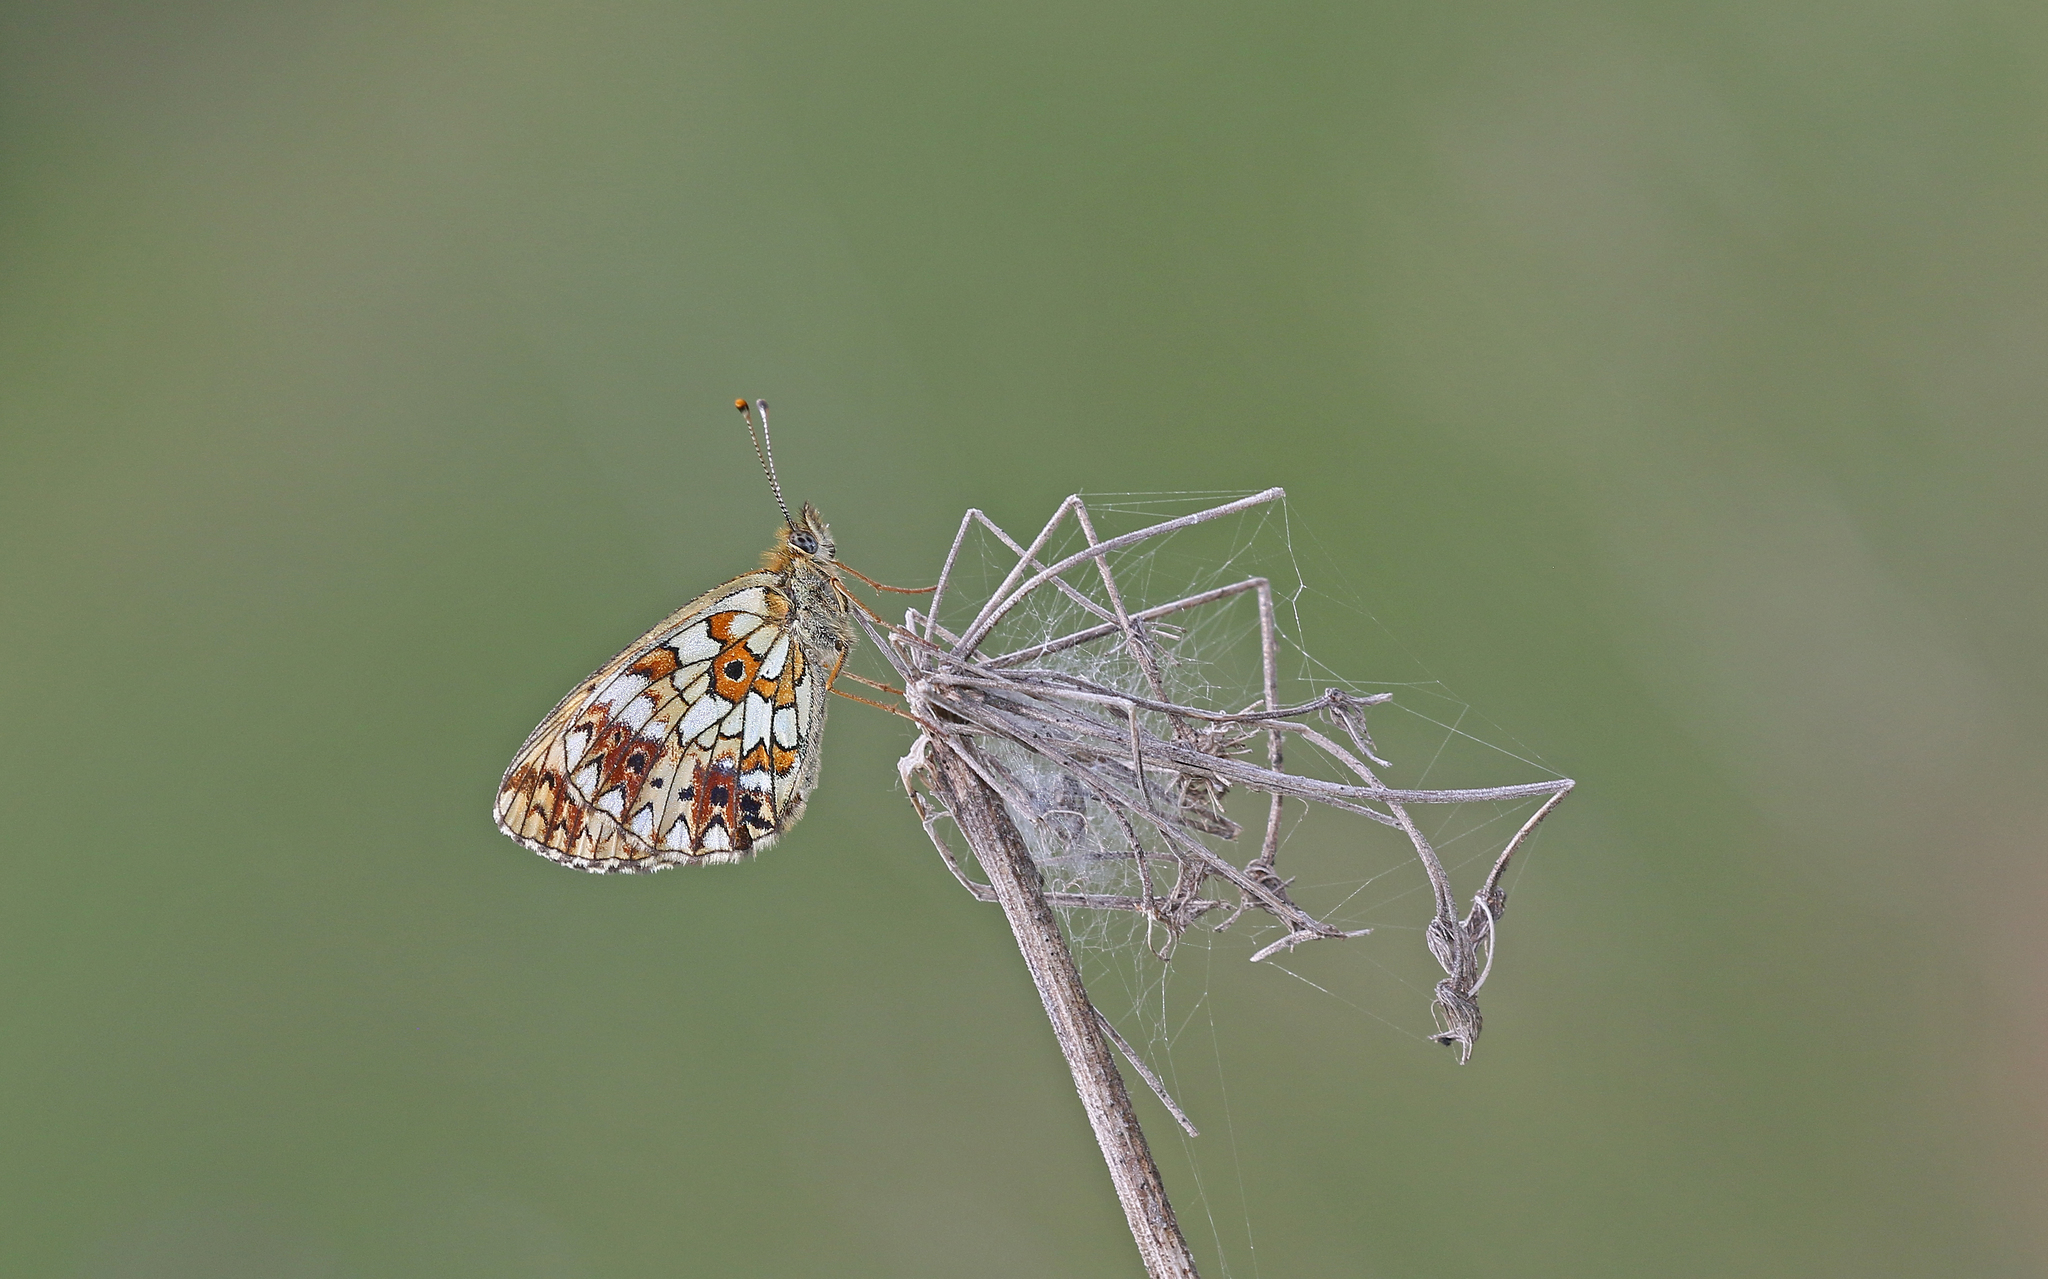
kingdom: Animalia
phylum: Arthropoda
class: Insecta
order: Lepidoptera
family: Nymphalidae
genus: Boloria
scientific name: Boloria selene
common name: Small pearl-bordered fritillary
